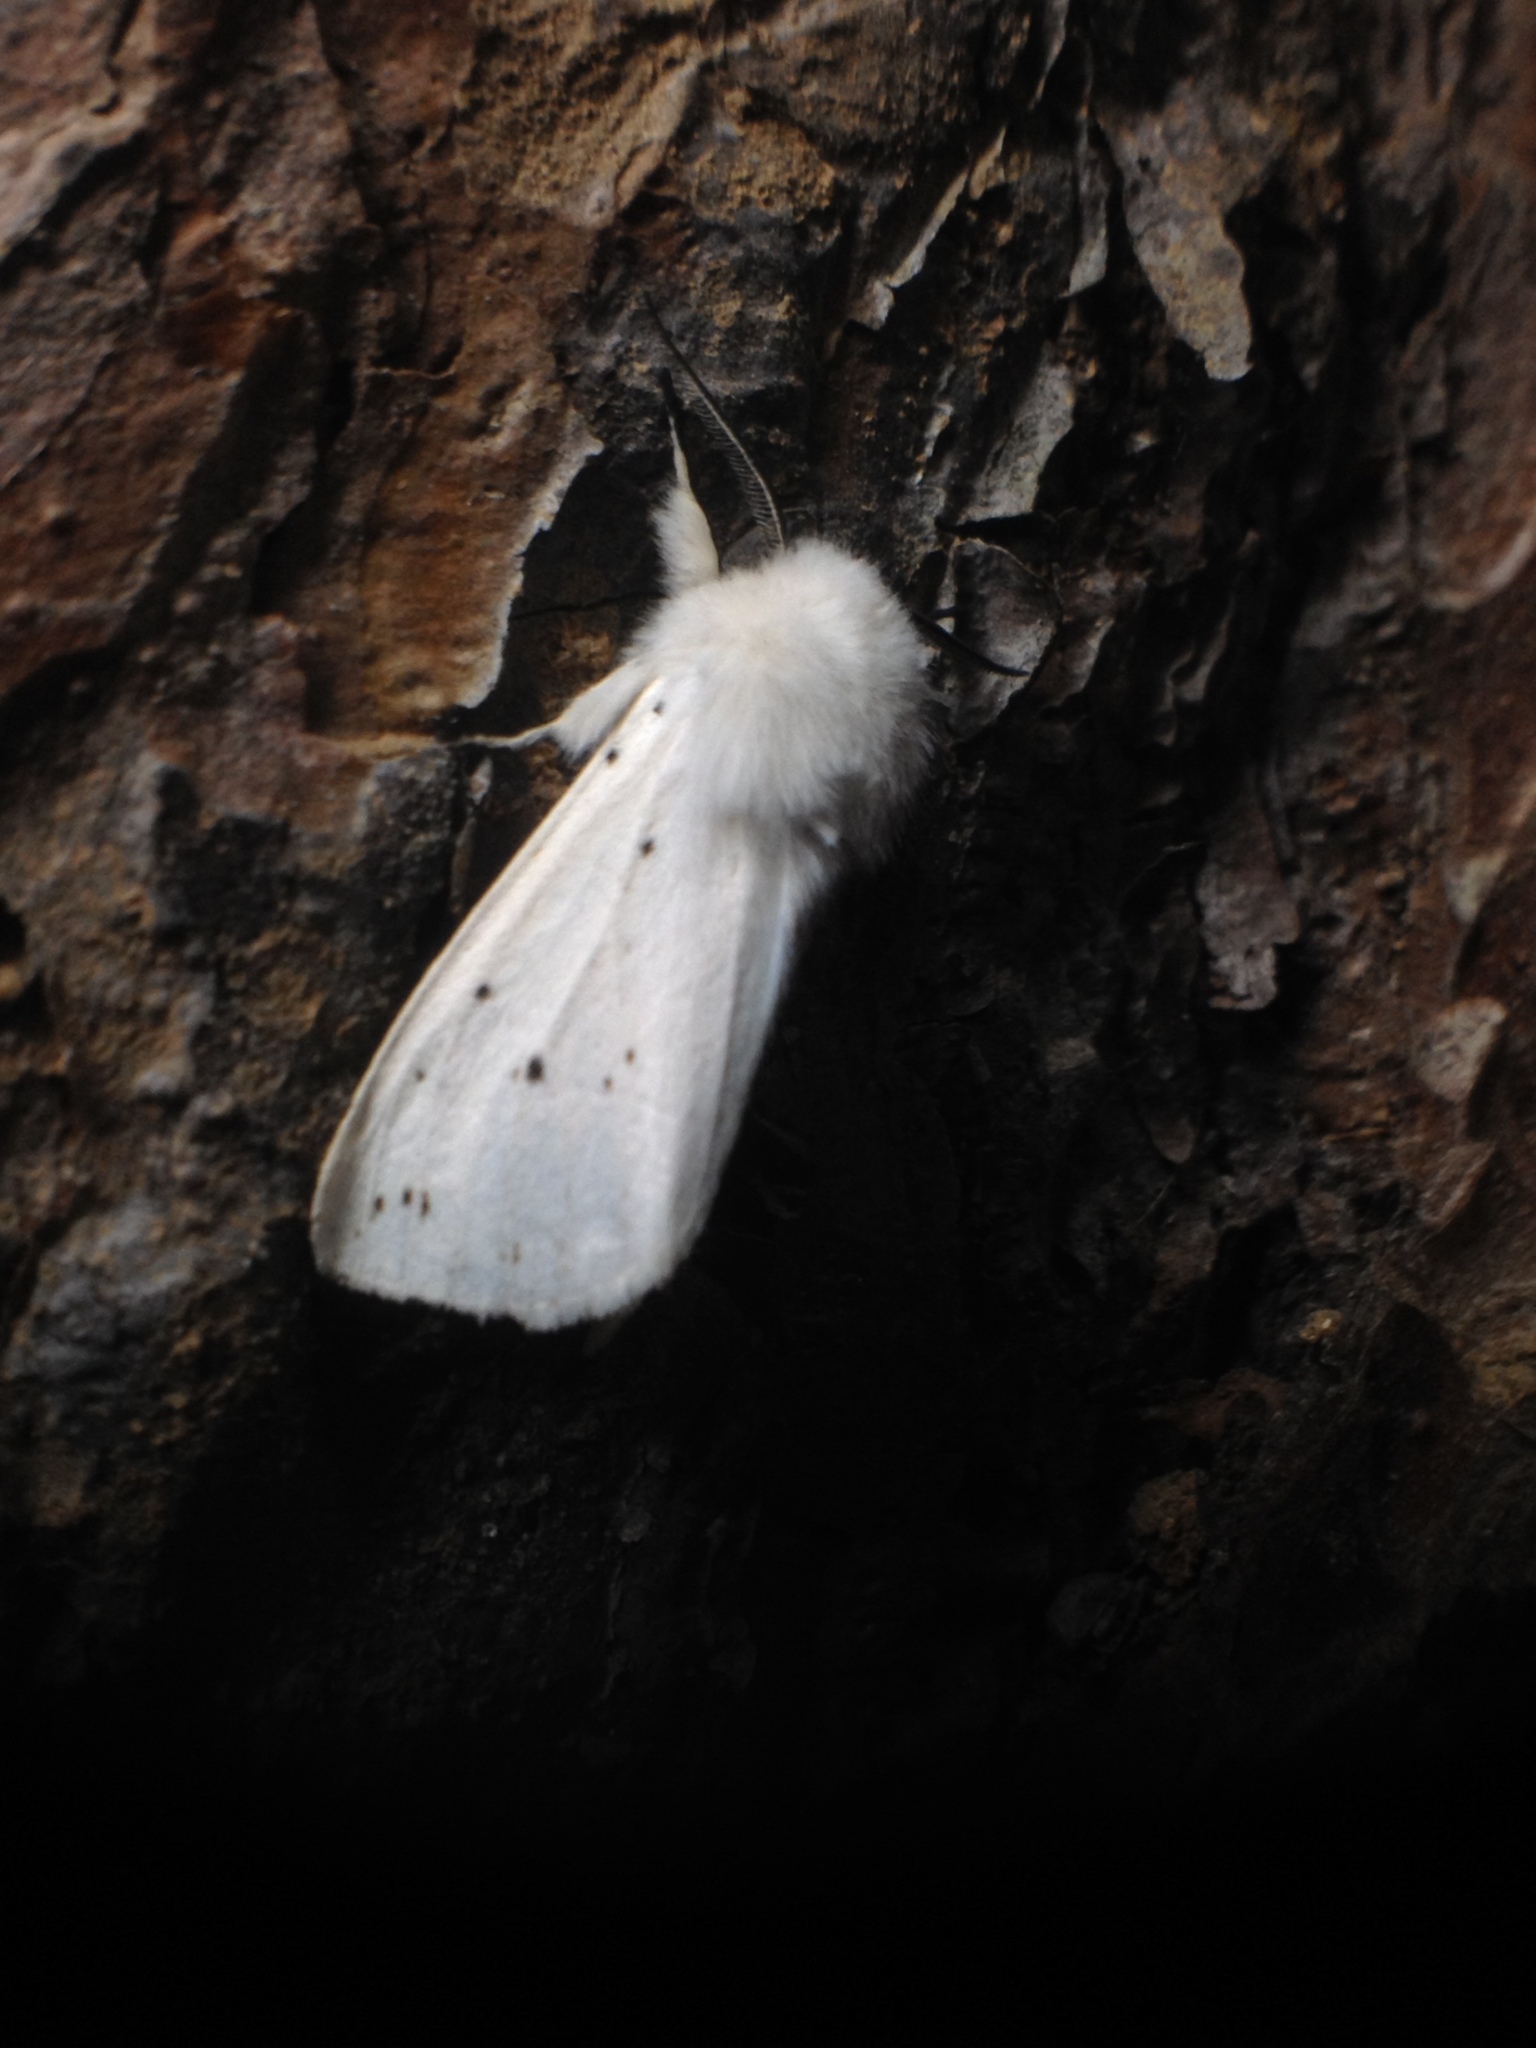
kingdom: Animalia
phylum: Arthropoda
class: Insecta
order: Lepidoptera
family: Erebidae
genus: Spilosoma
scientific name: Spilosoma lubricipeda
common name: White ermine
